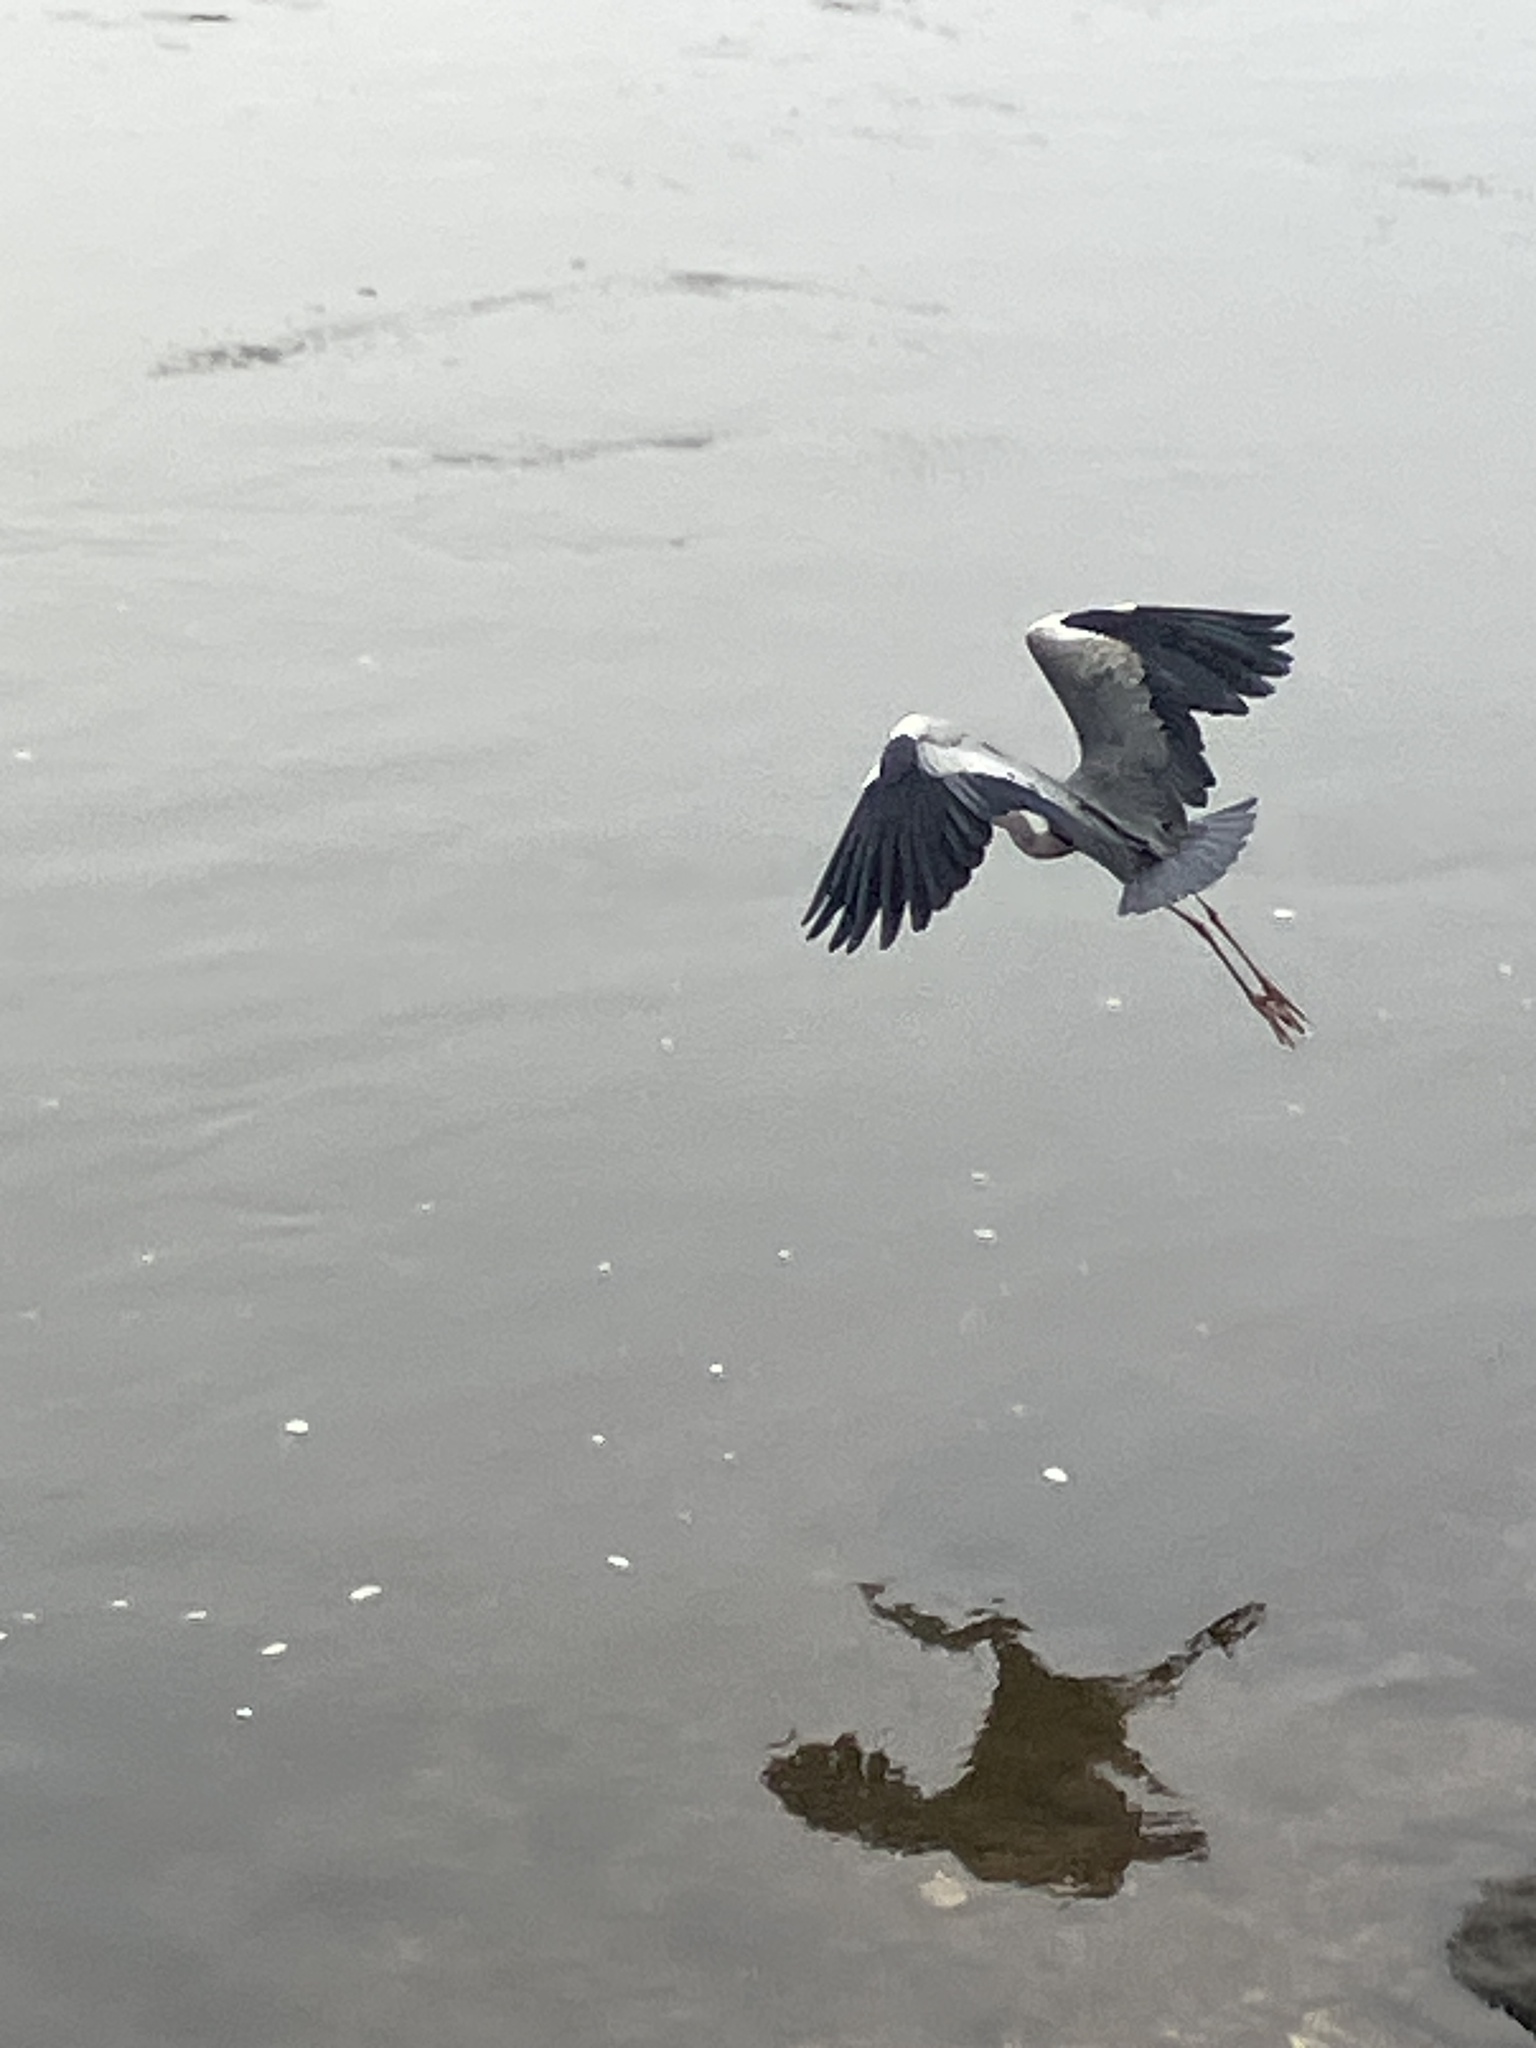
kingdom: Animalia
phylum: Chordata
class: Aves
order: Pelecaniformes
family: Ardeidae
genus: Ardea
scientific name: Ardea cinerea
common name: Grey heron
